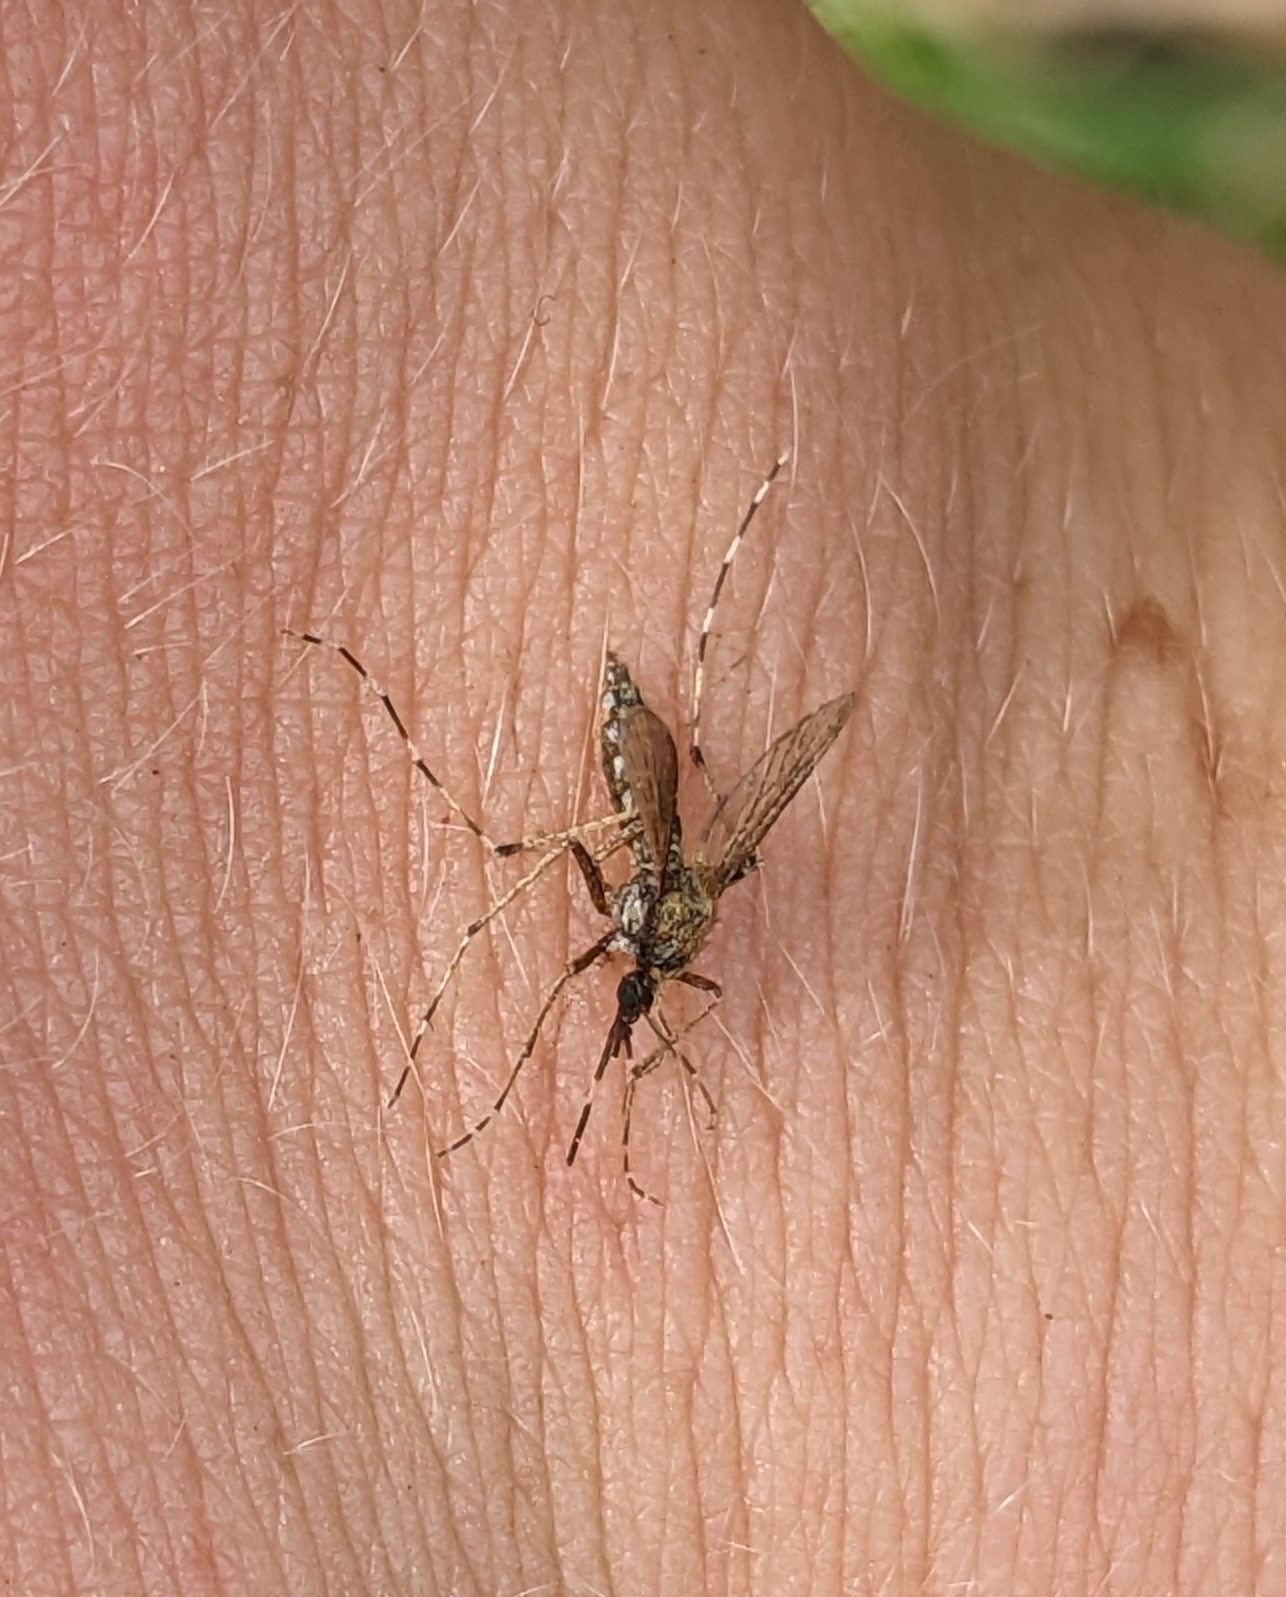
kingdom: Animalia
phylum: Arthropoda
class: Insecta
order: Diptera
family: Culicidae
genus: Aedes
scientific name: Aedes sollicitans
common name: Saltmarsh mosquito
